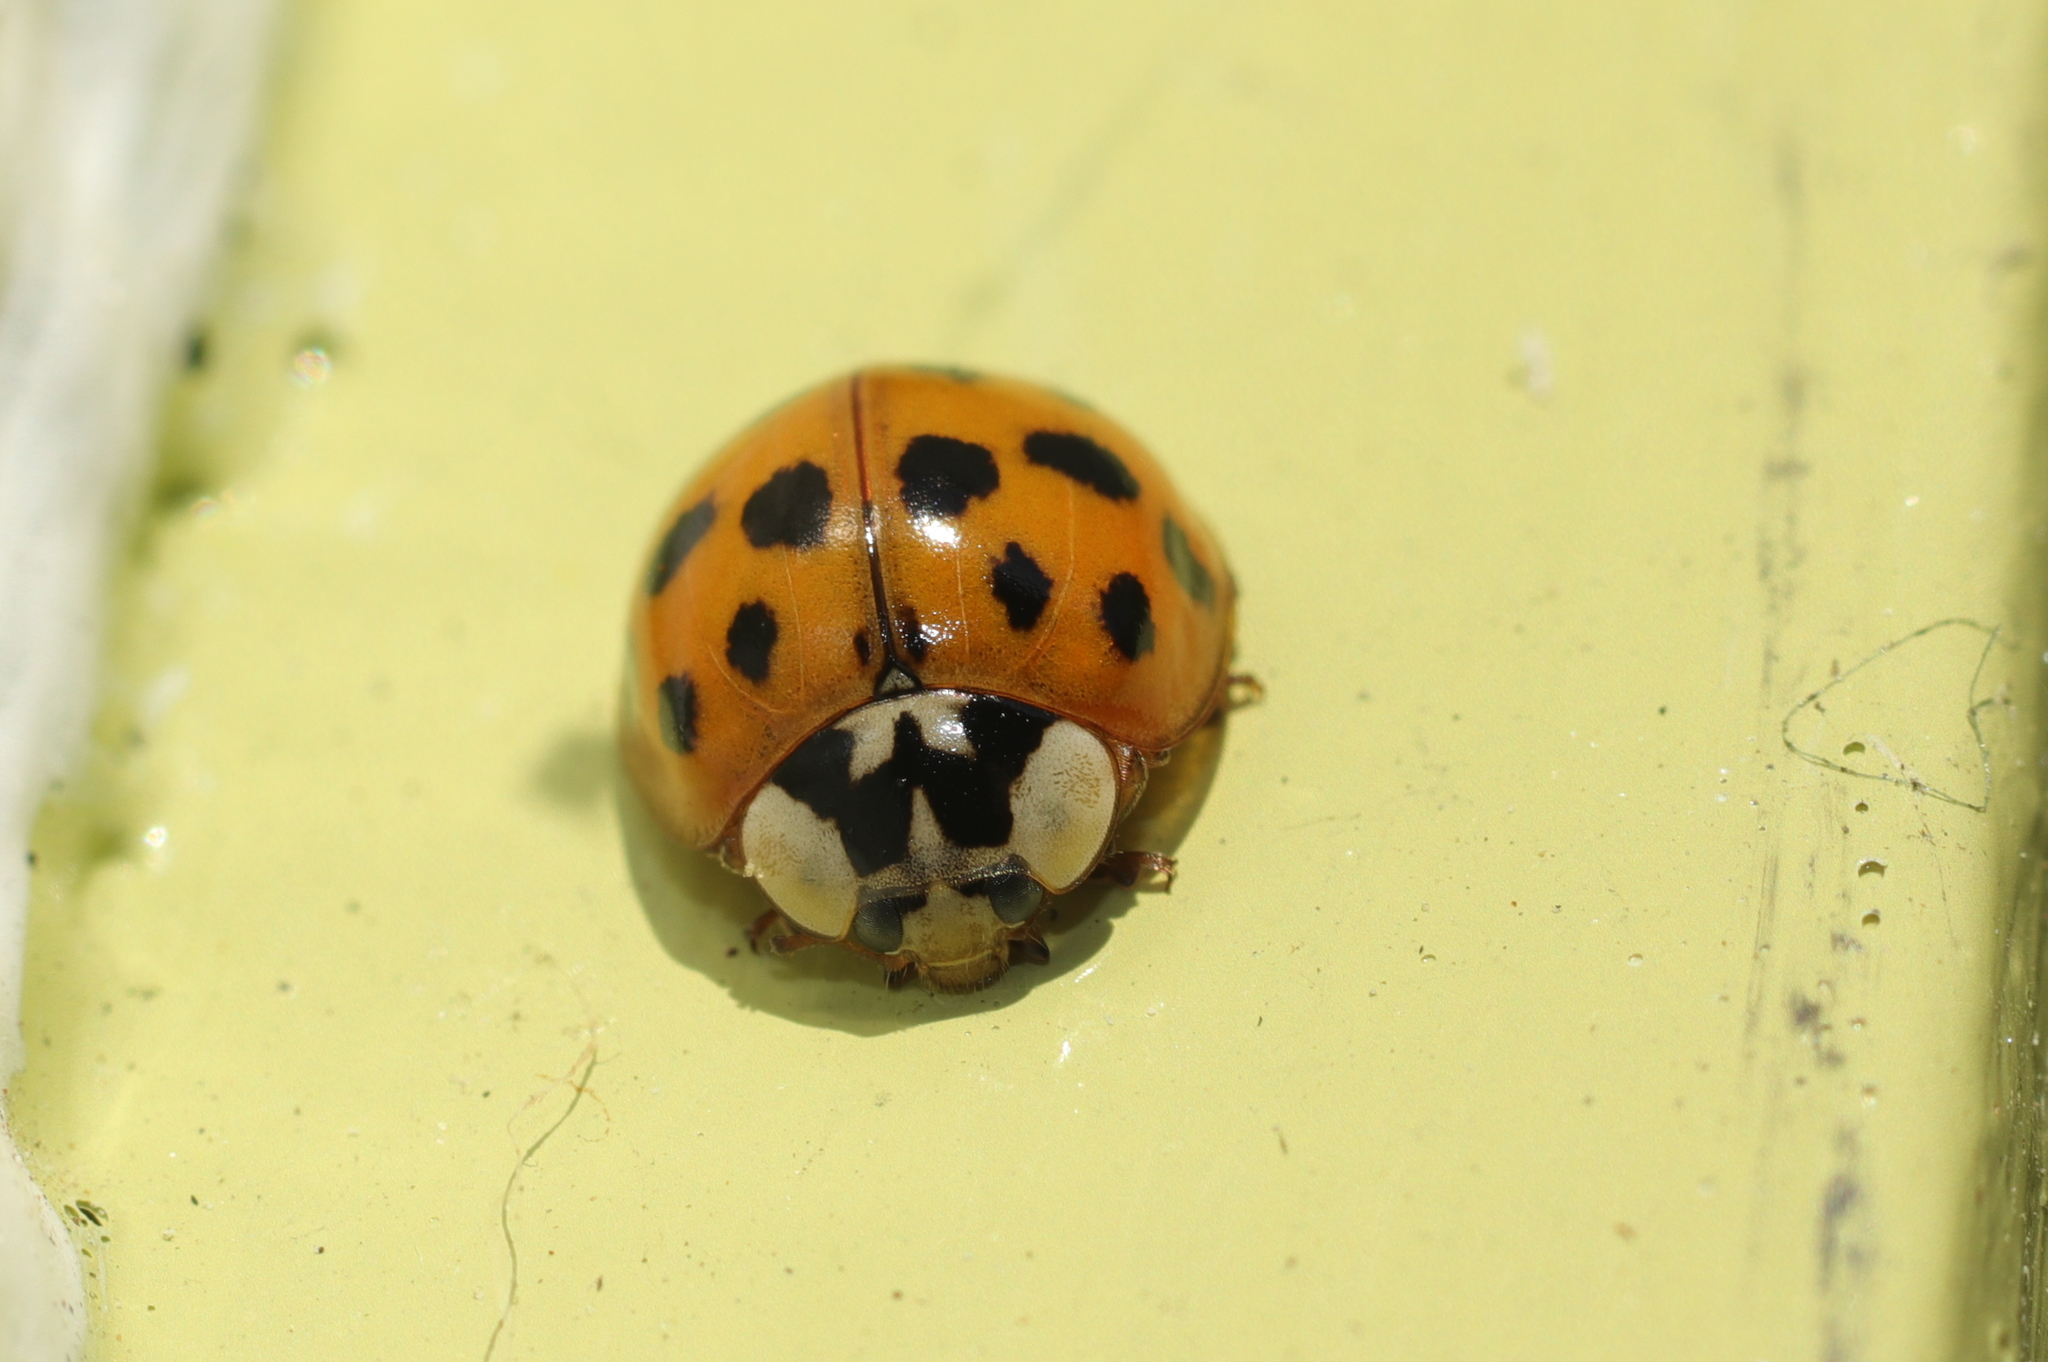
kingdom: Animalia
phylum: Arthropoda
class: Insecta
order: Coleoptera
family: Coccinellidae
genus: Harmonia
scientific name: Harmonia axyridis
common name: Harlequin ladybird
